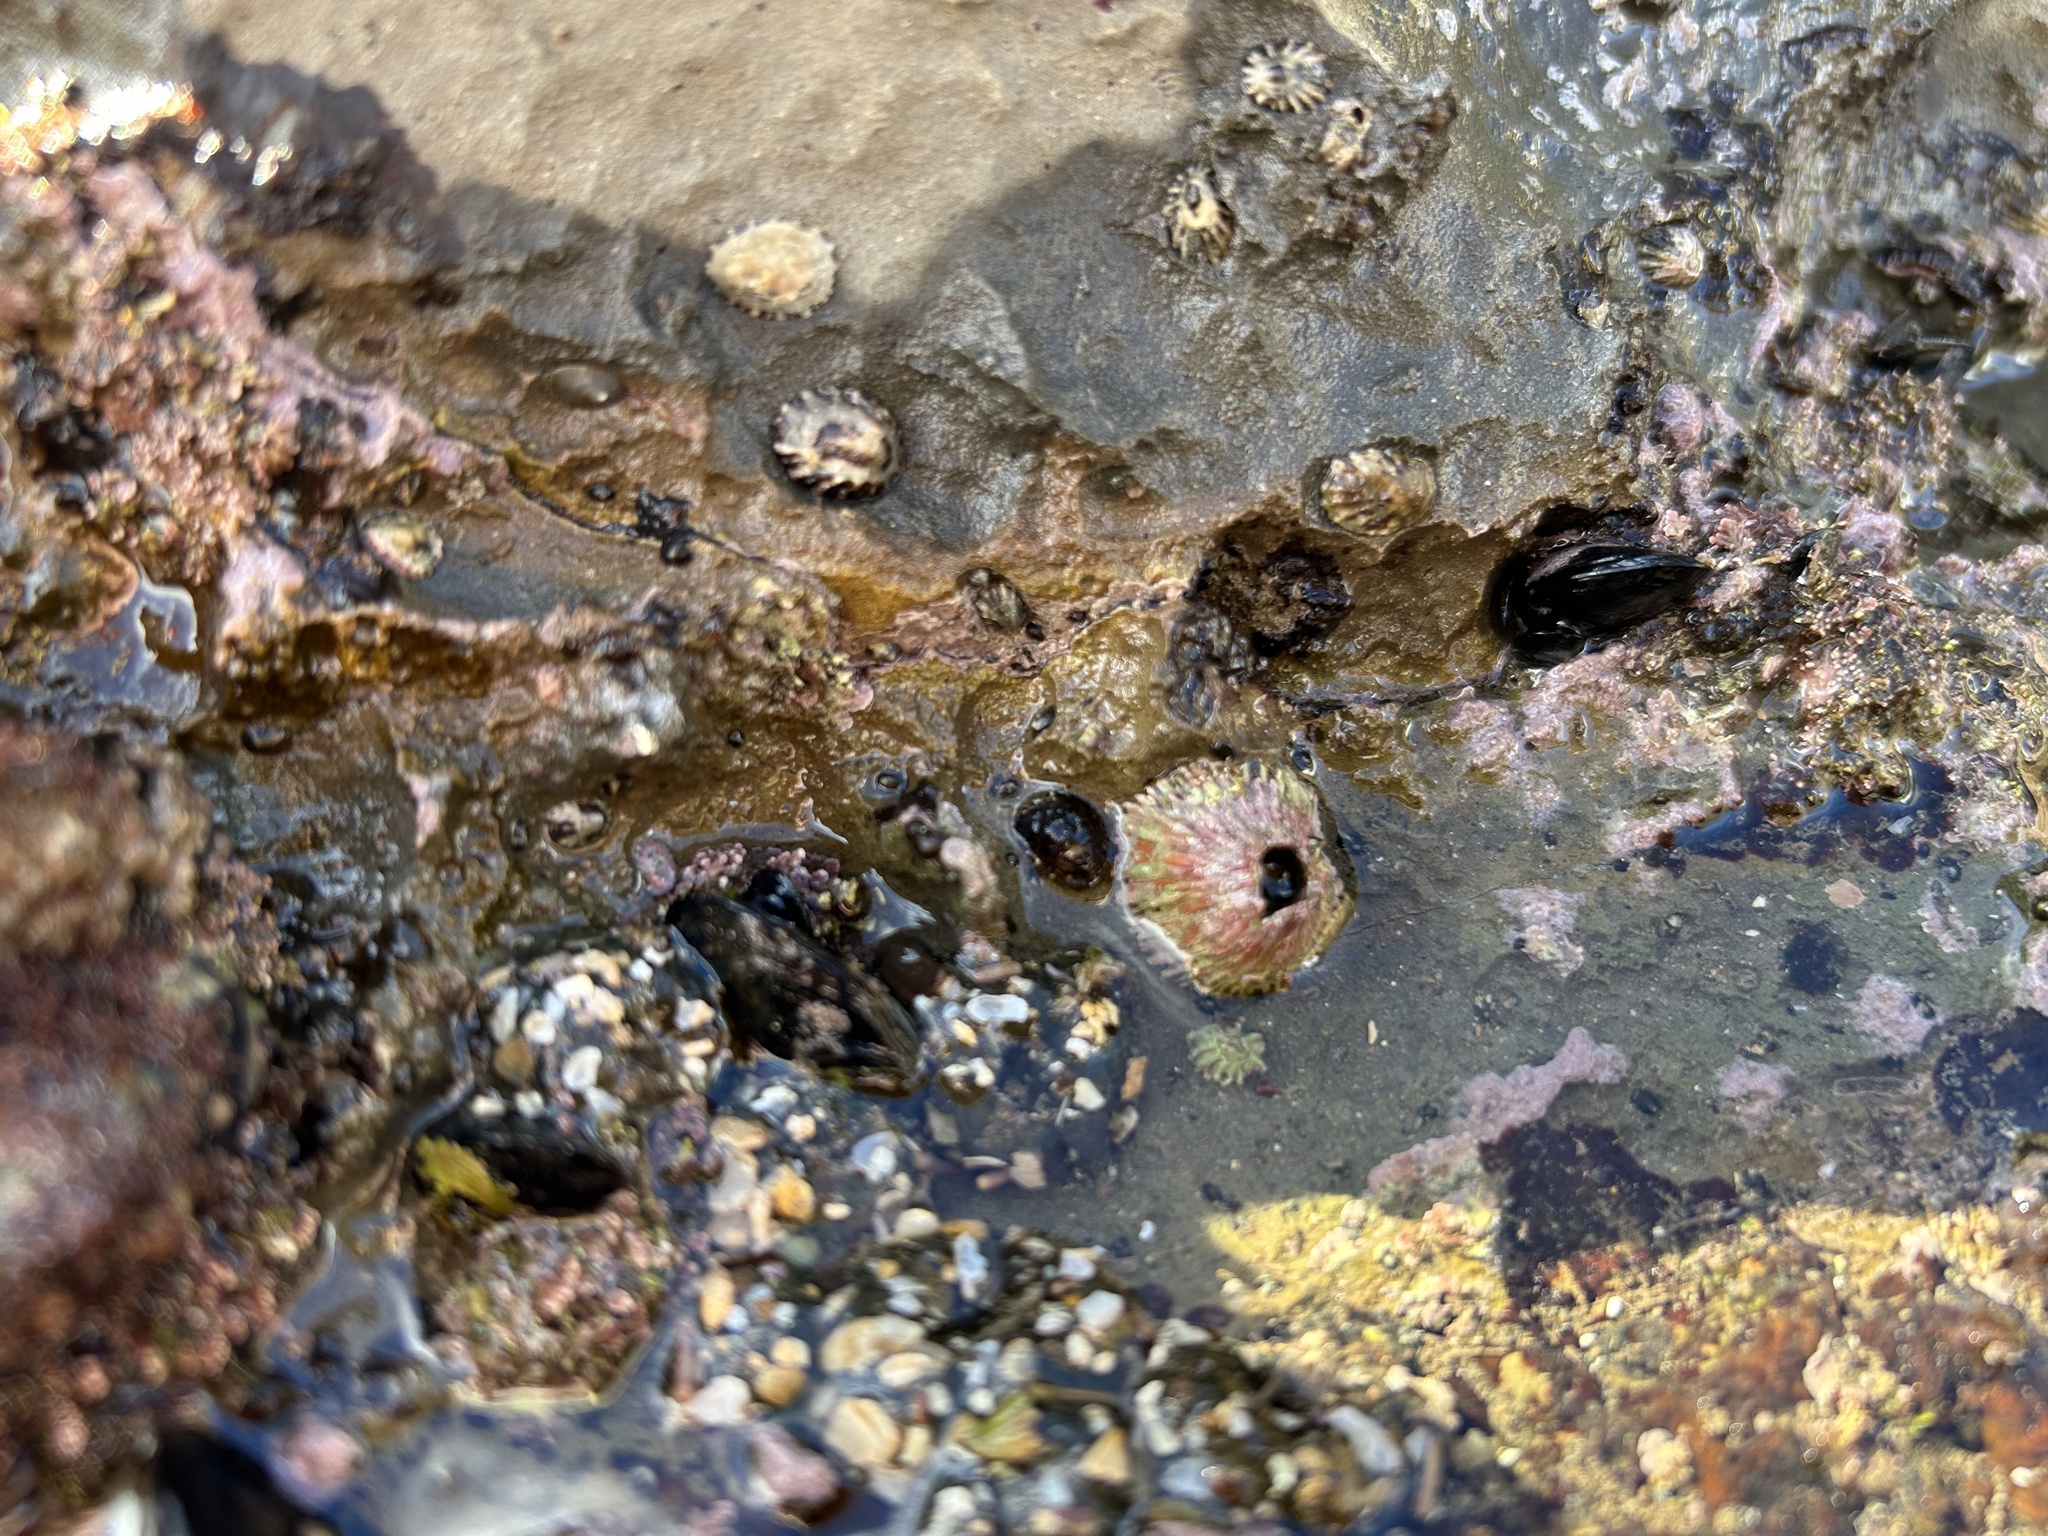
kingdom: Animalia
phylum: Arthropoda
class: Maxillopoda
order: Sessilia
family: Tetraclitidae
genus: Tetraclita
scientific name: Tetraclita rubescens
